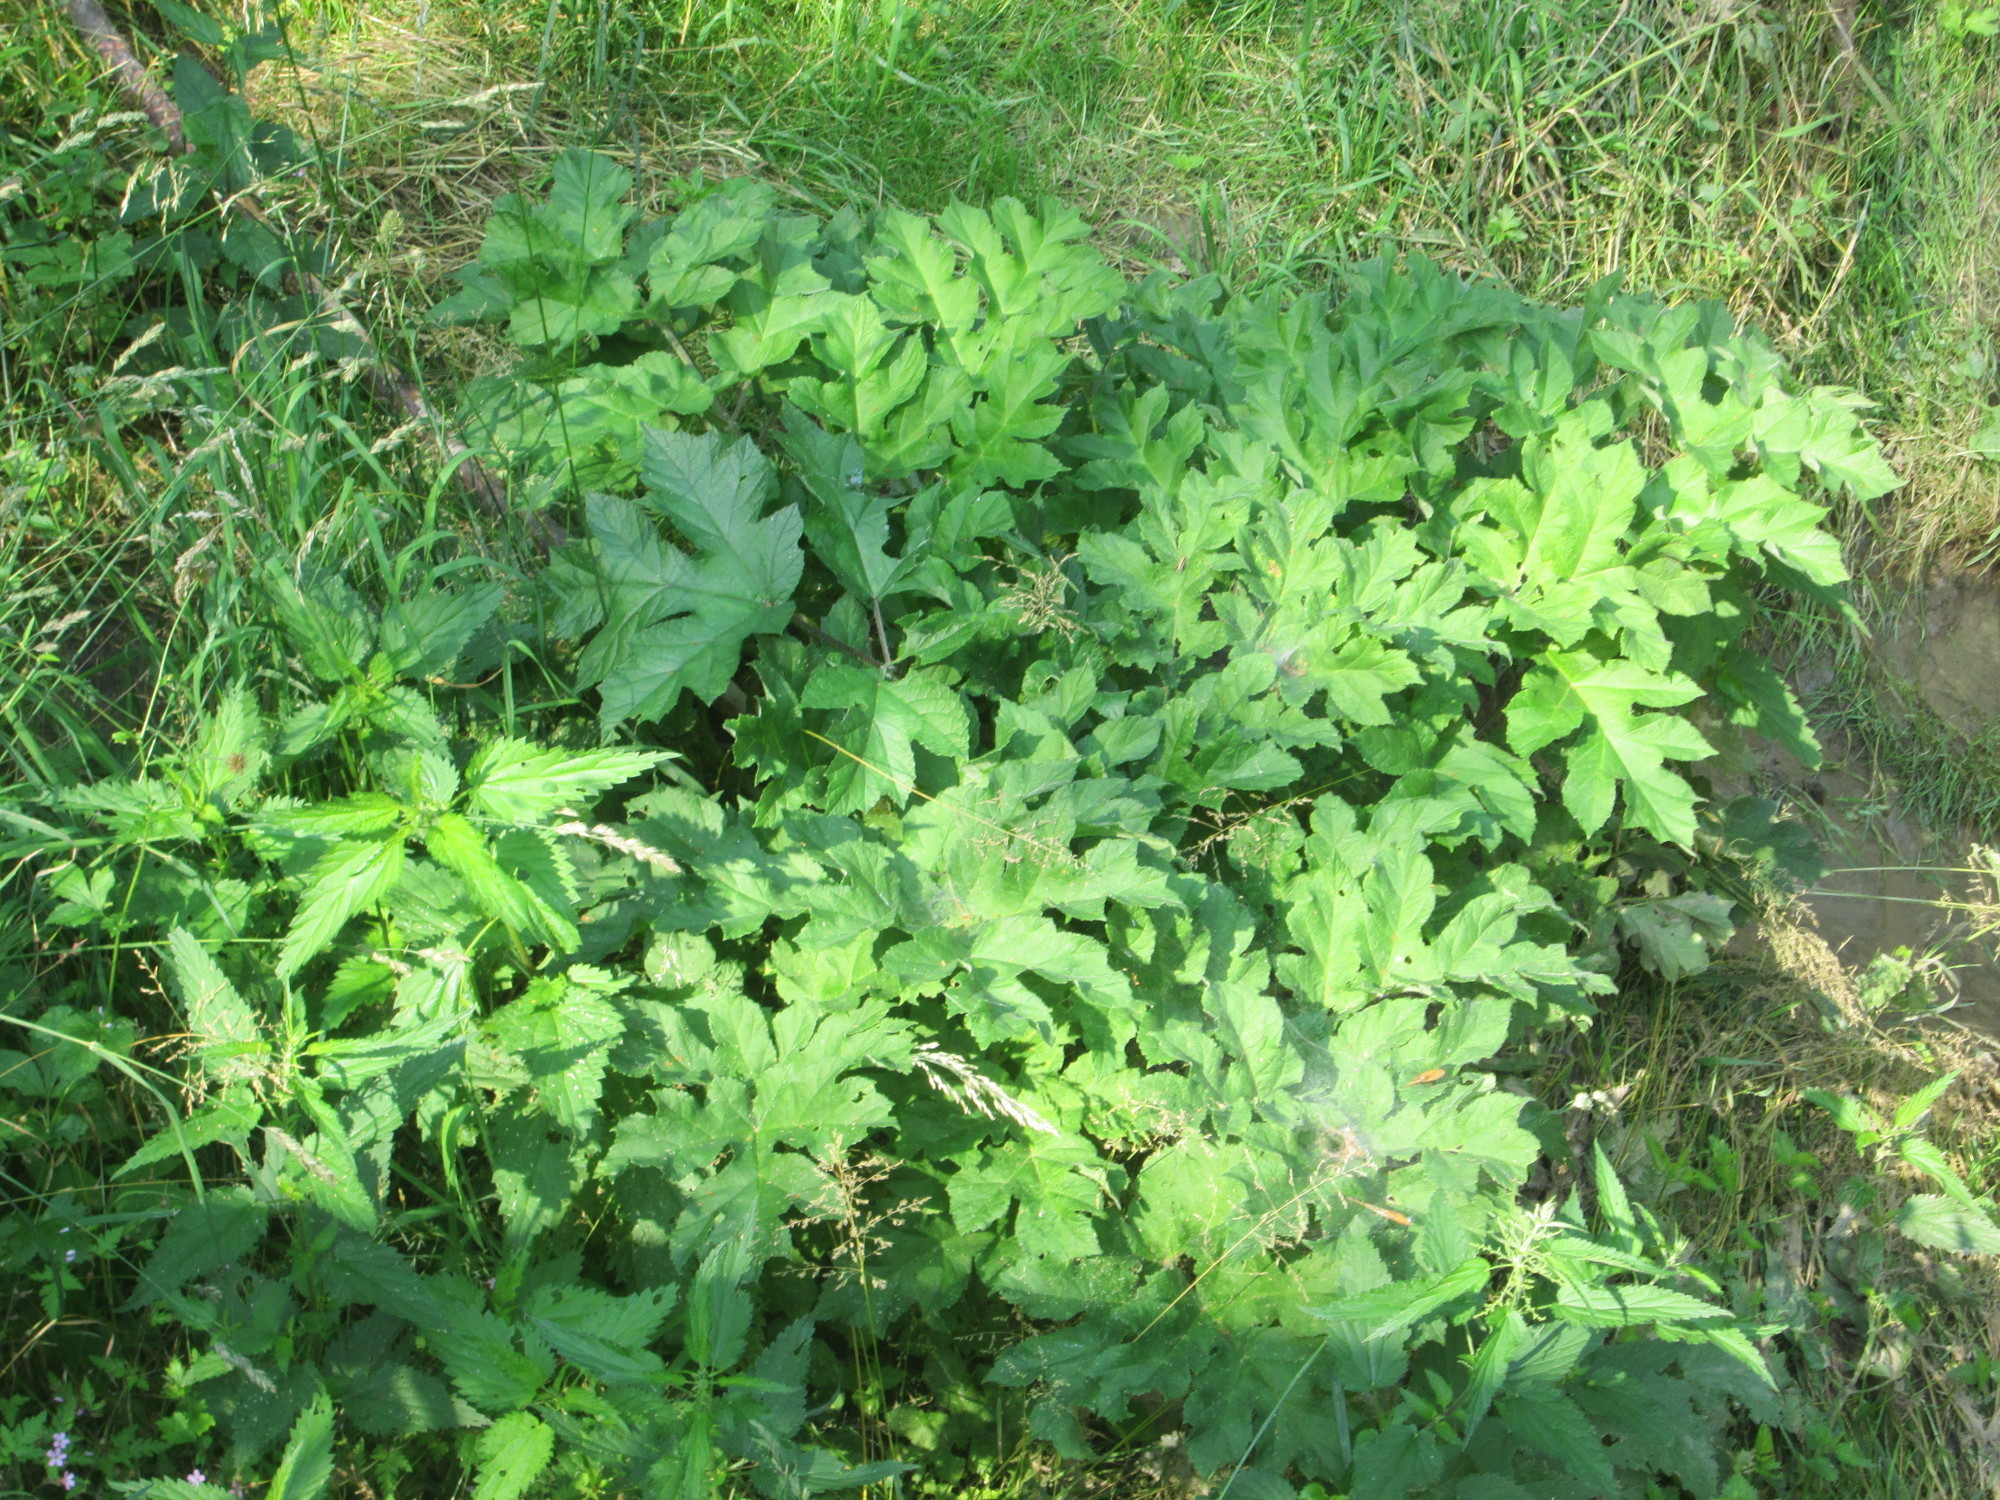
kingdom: Plantae
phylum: Tracheophyta
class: Magnoliopsida
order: Apiales
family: Apiaceae
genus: Heracleum
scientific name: Heracleum mantegazzianum
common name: Giant hogweed
